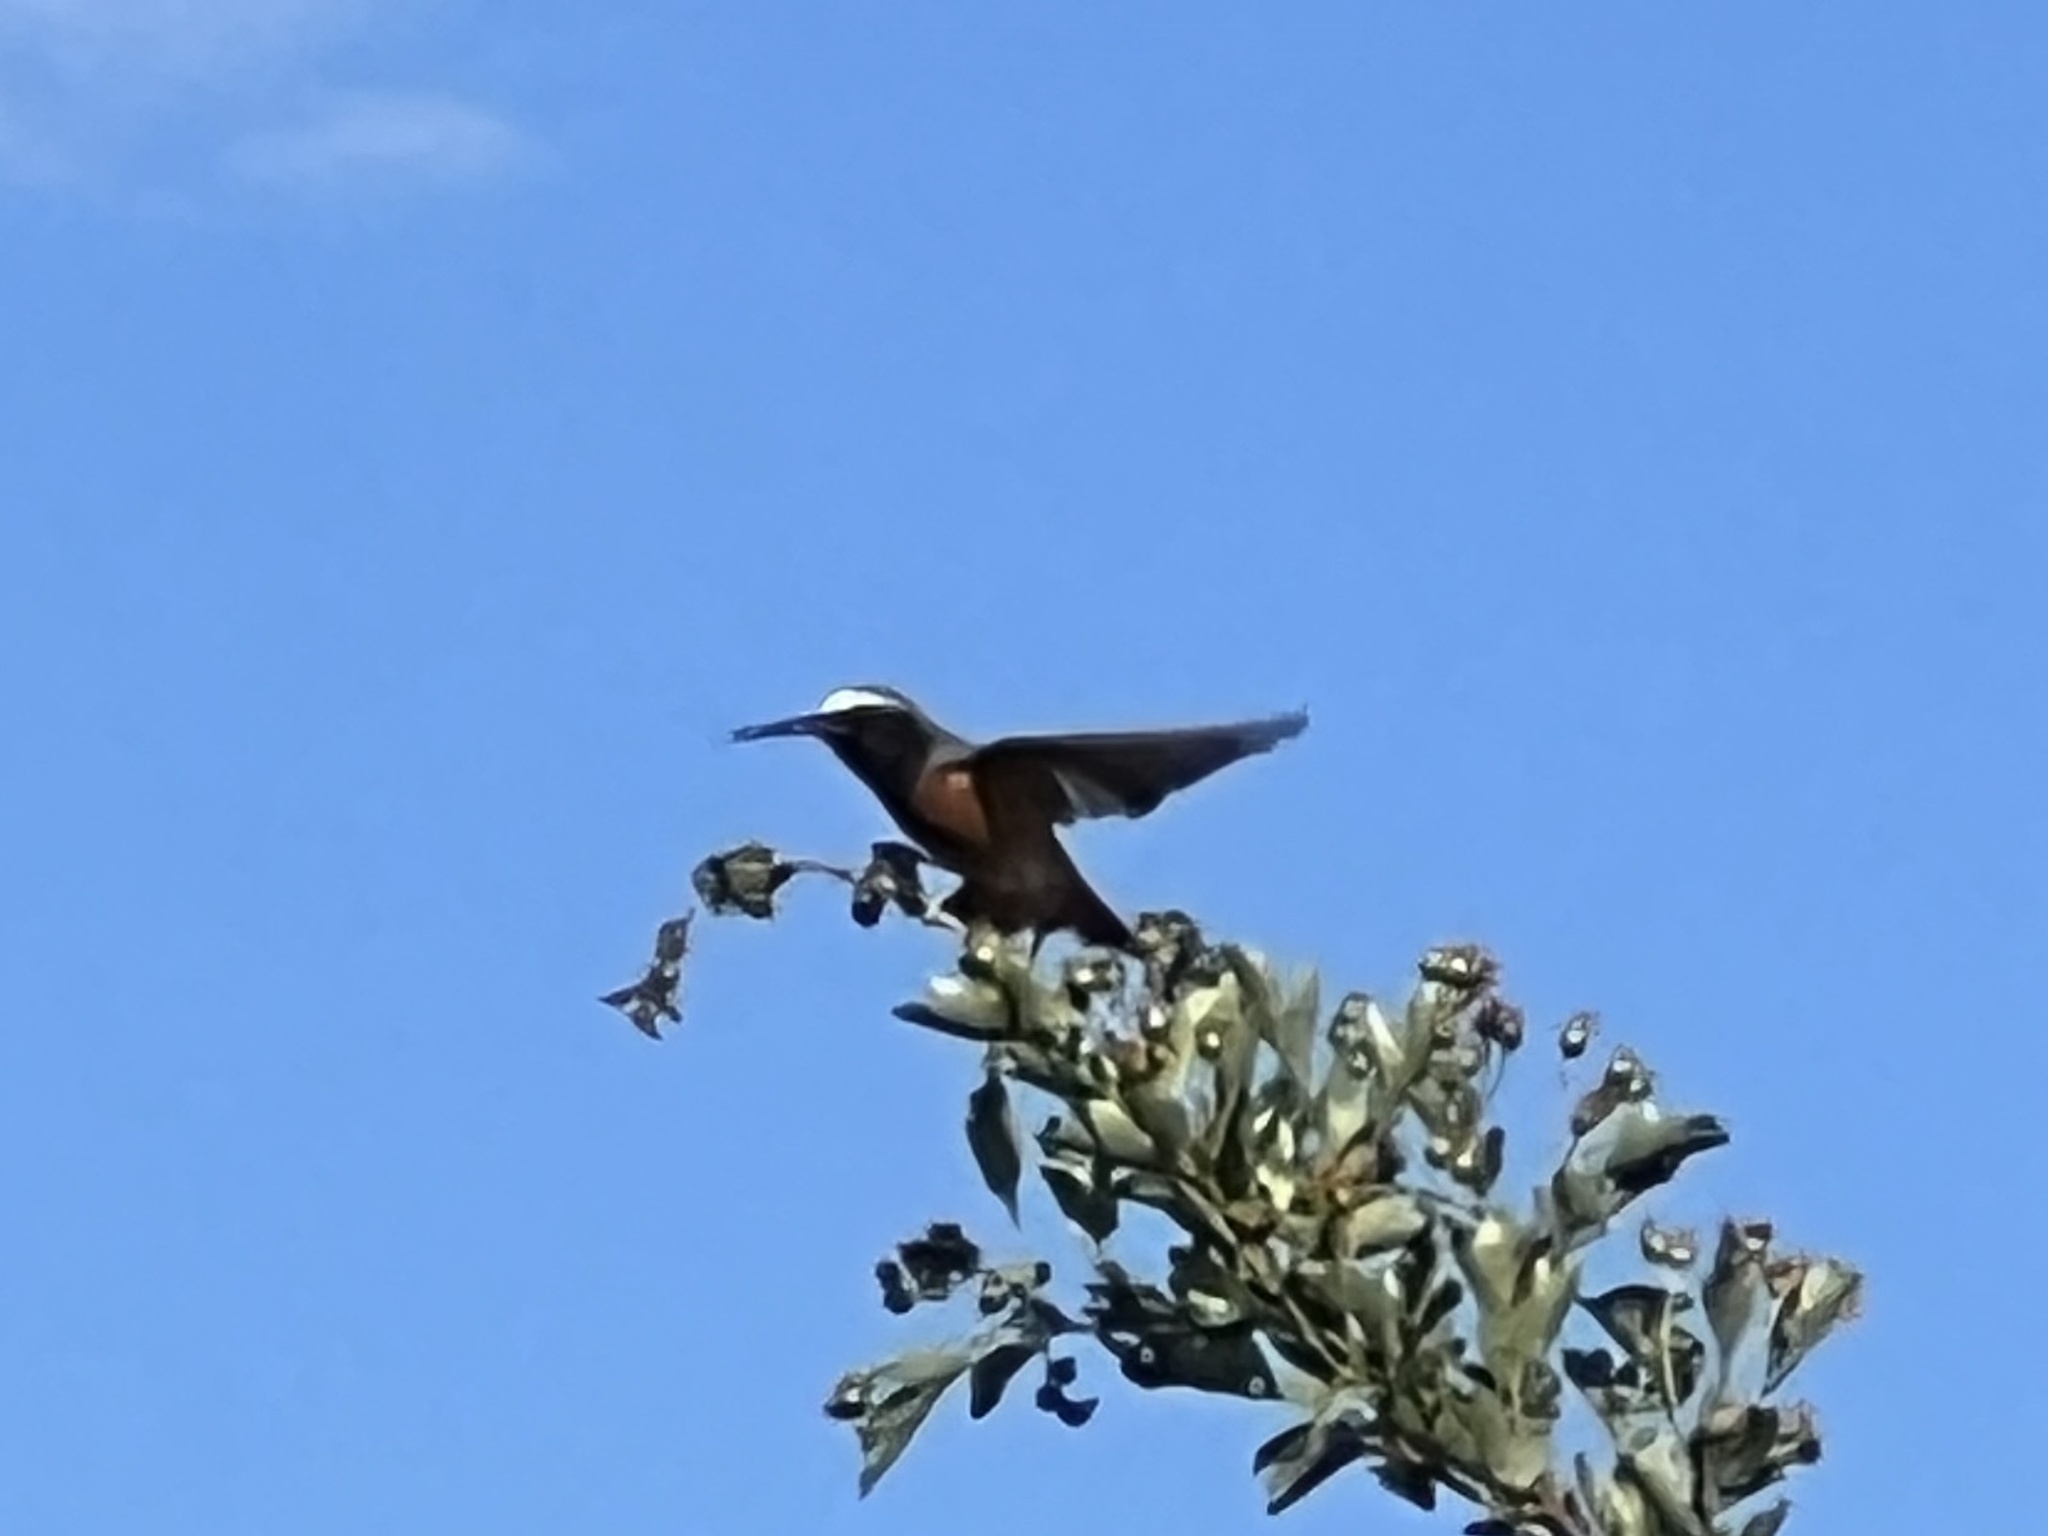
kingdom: Animalia
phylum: Chordata
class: Aves
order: Passeriformes
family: Muscicapidae
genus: Phoenicurus
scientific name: Phoenicurus phoenicurus
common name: Common redstart
